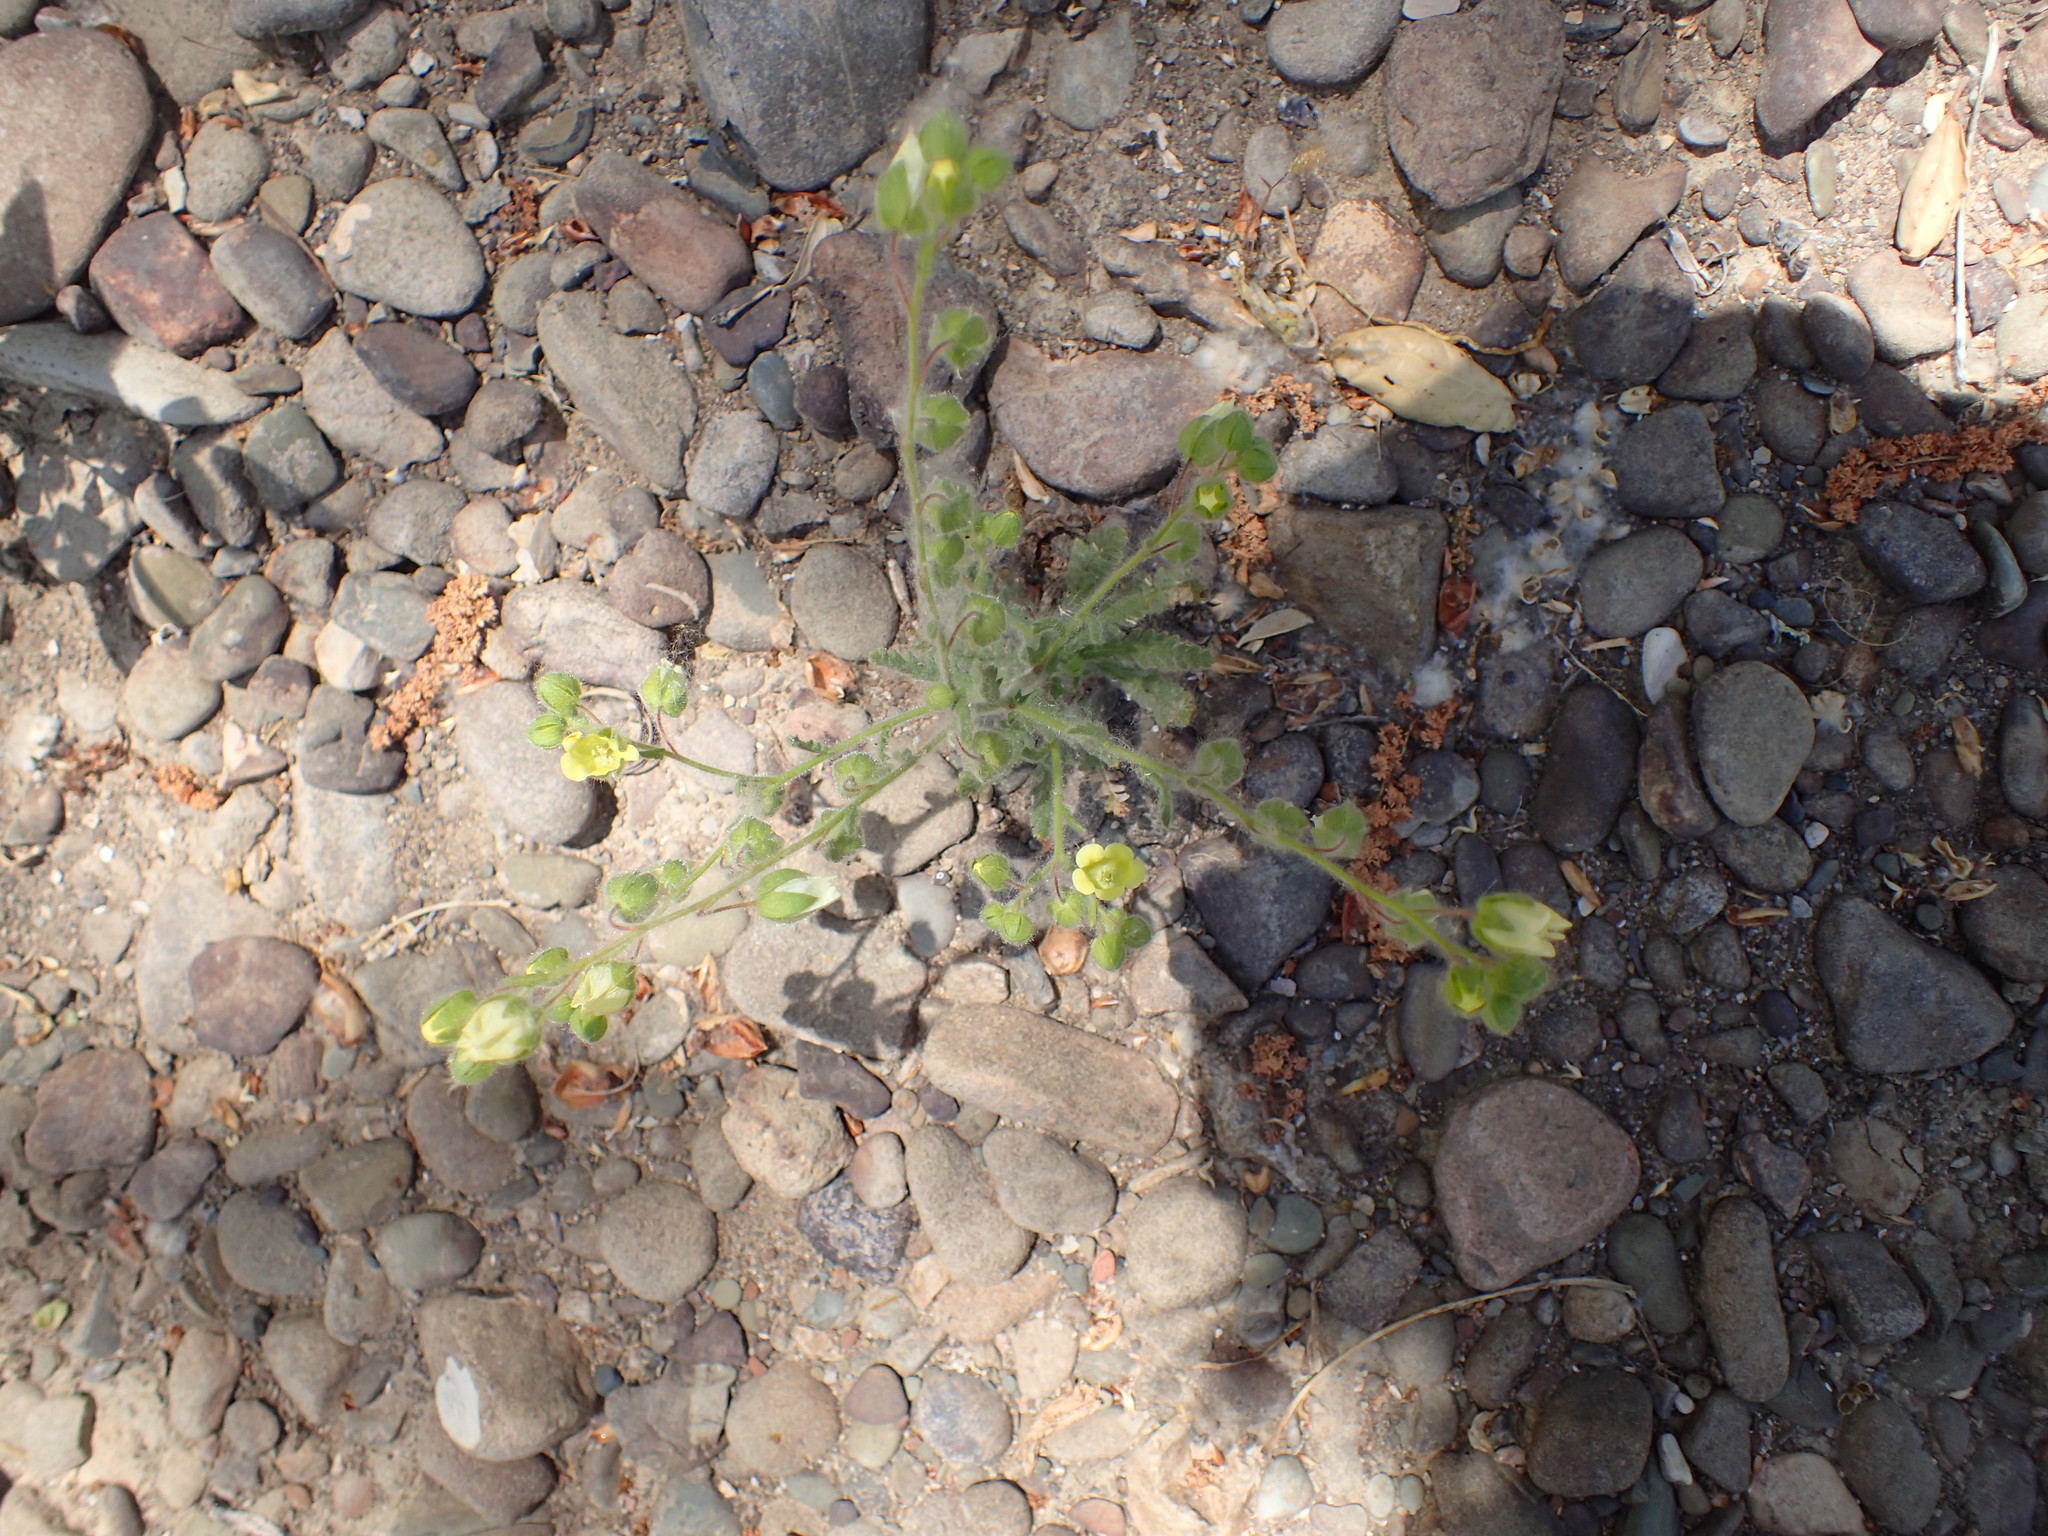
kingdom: Plantae
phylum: Tracheophyta
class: Magnoliopsida
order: Boraginales
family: Hydrophyllaceae
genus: Emmenanthe
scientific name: Emmenanthe penduliflora
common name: Whispering-bells
